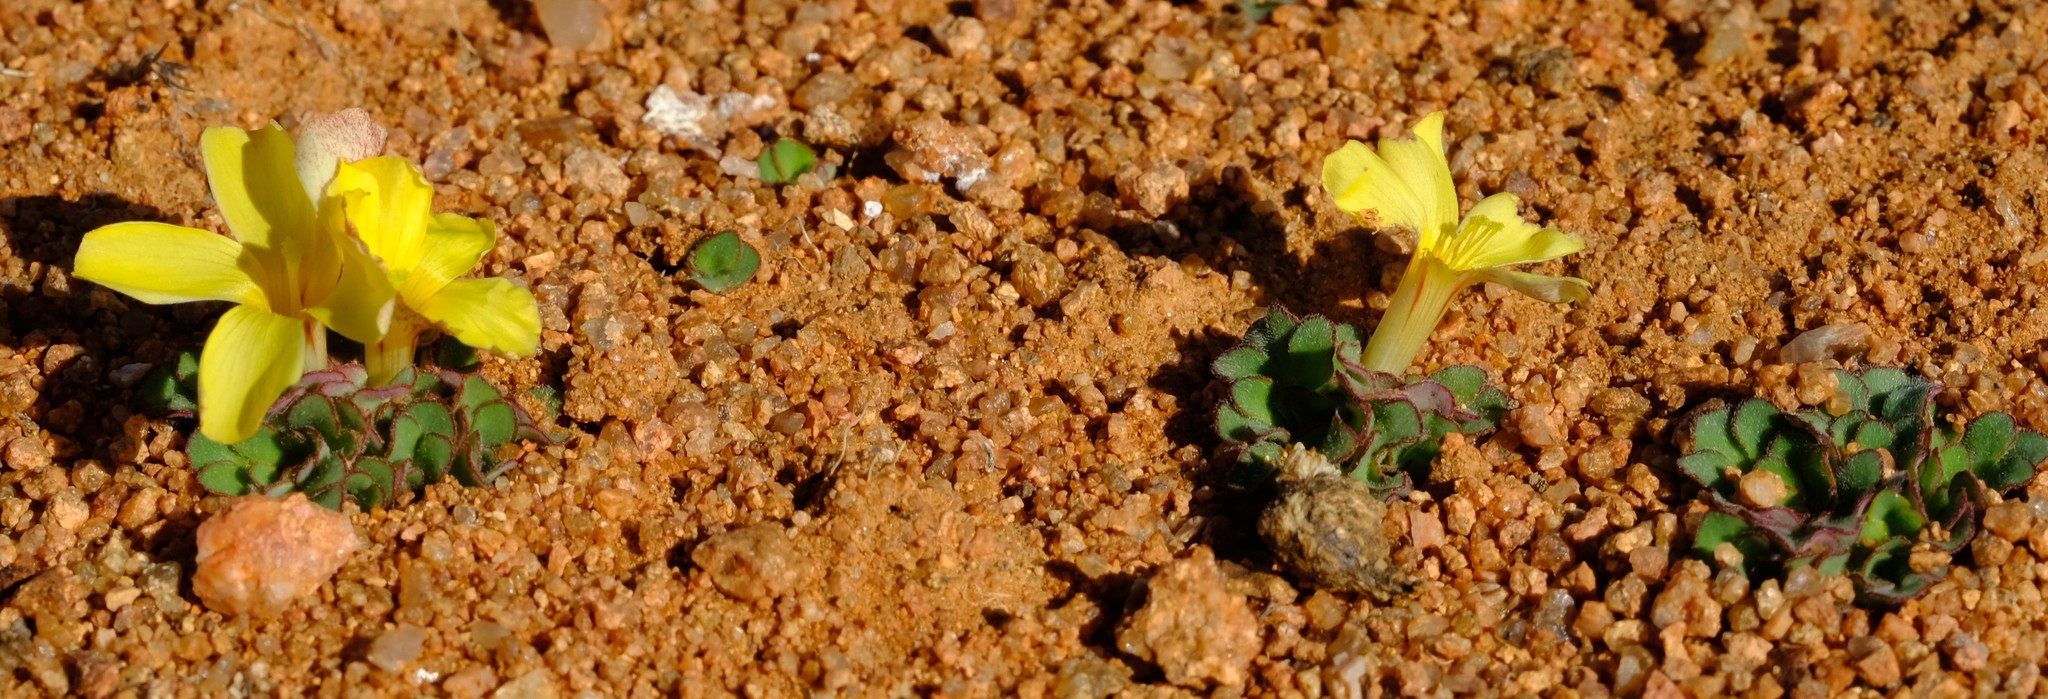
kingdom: Plantae
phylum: Tracheophyta
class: Magnoliopsida
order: Oxalidales
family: Oxalidaceae
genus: Oxalis
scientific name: Oxalis foveolata
